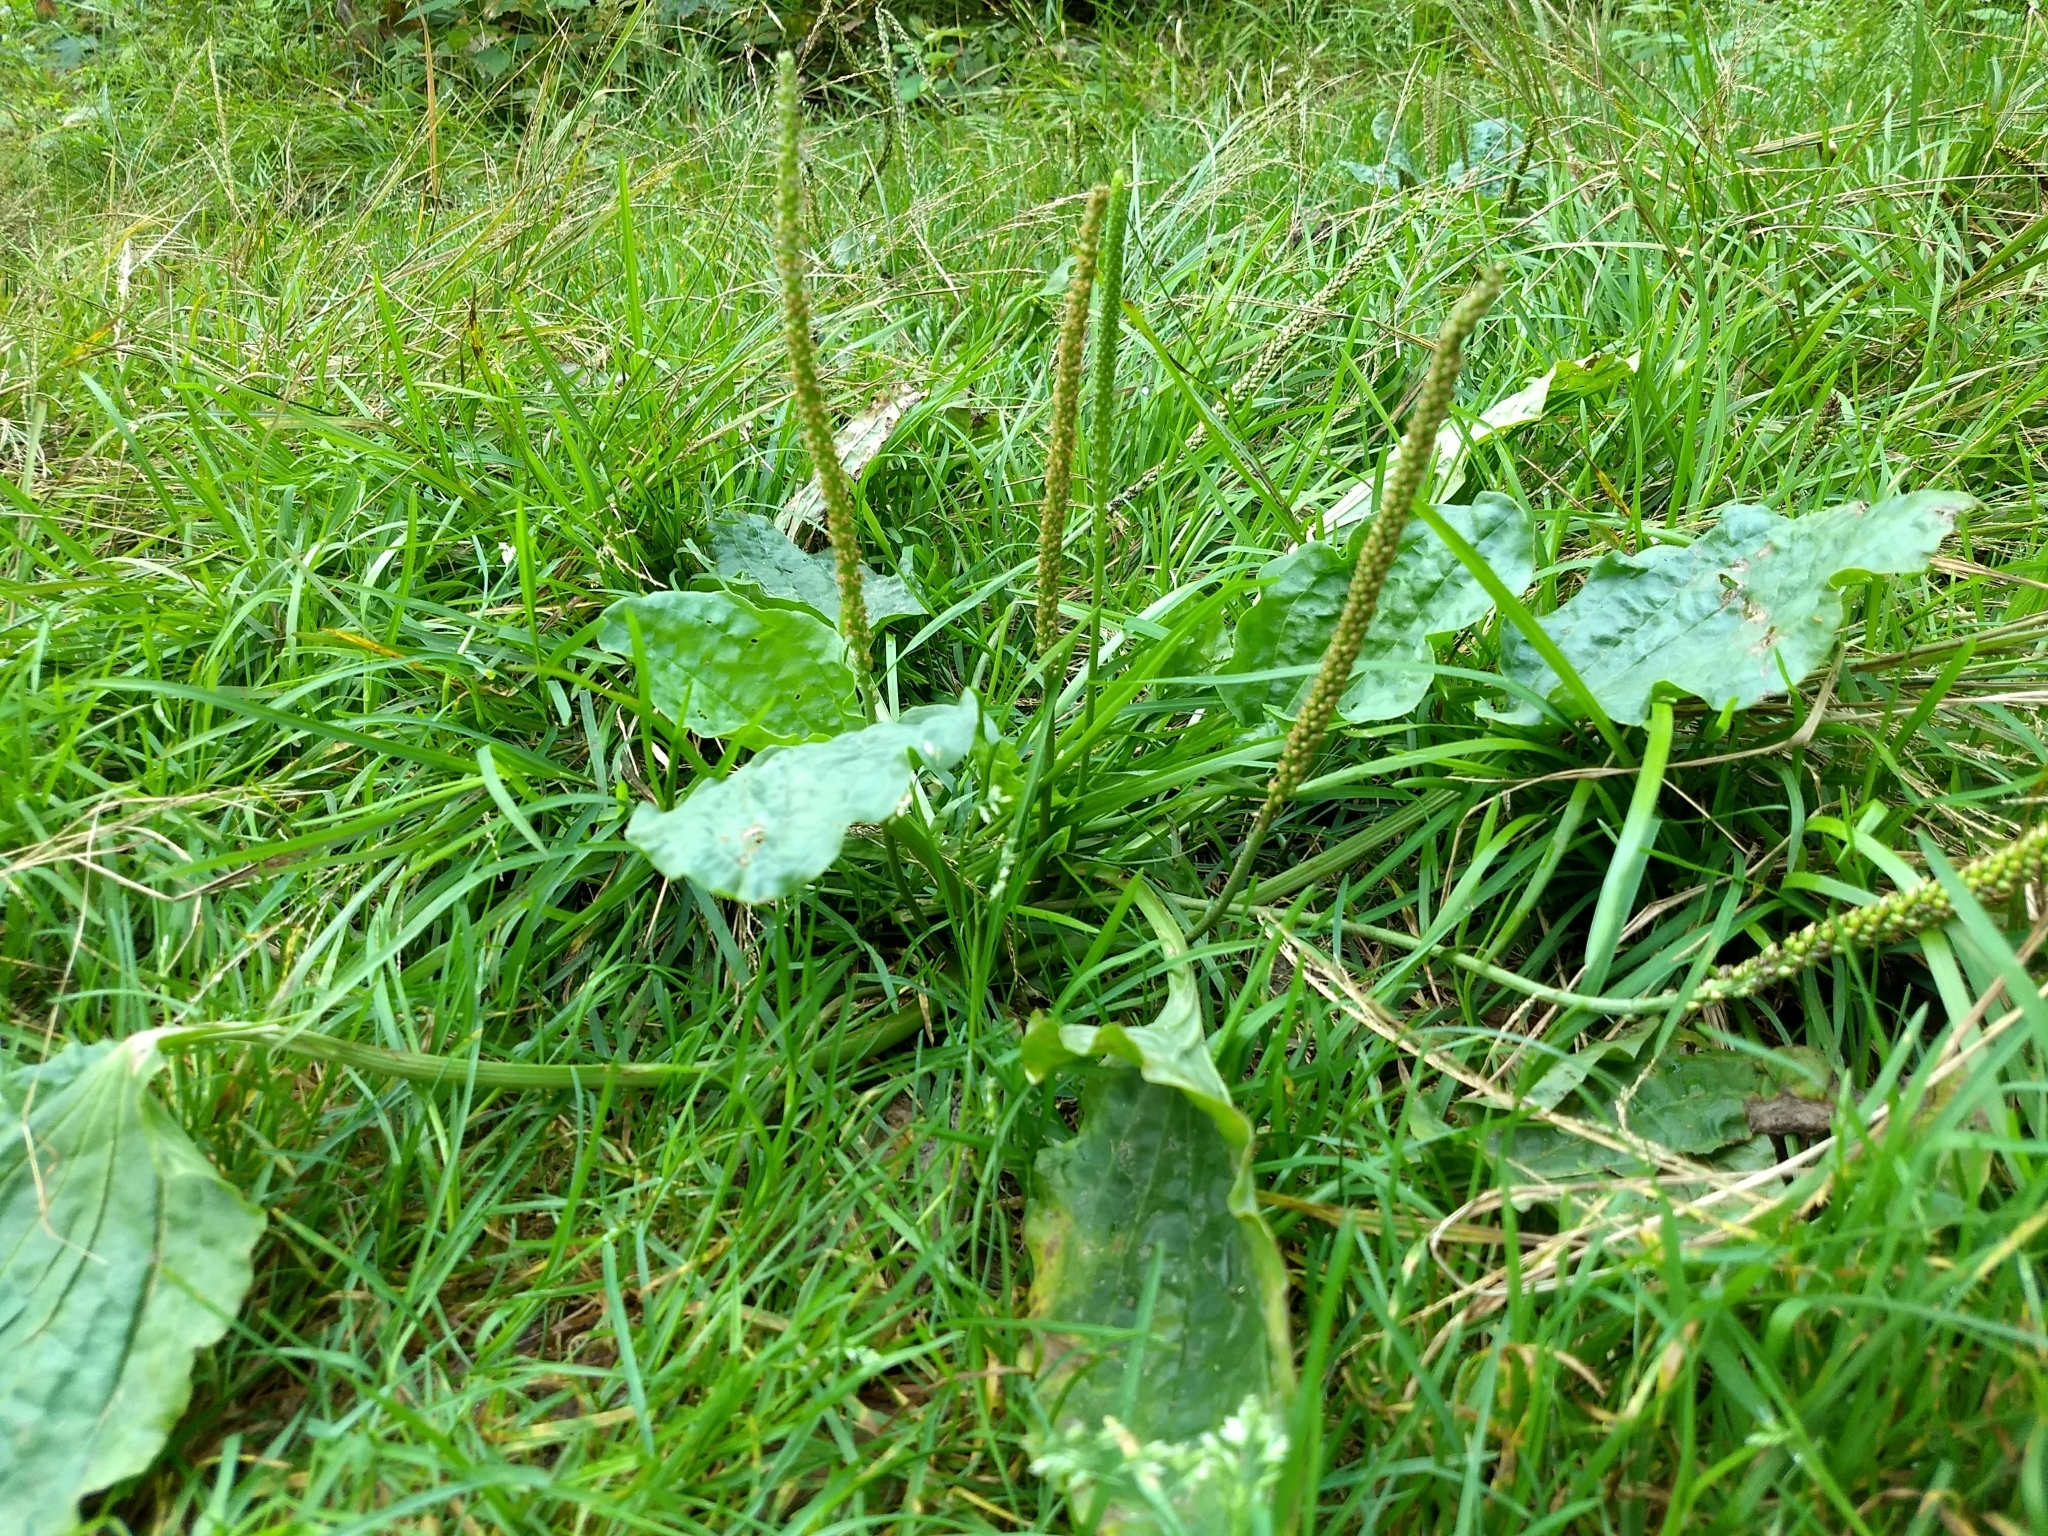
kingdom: Plantae
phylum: Tracheophyta
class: Magnoliopsida
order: Lamiales
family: Plantaginaceae
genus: Plantago
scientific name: Plantago major
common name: Common plantain
